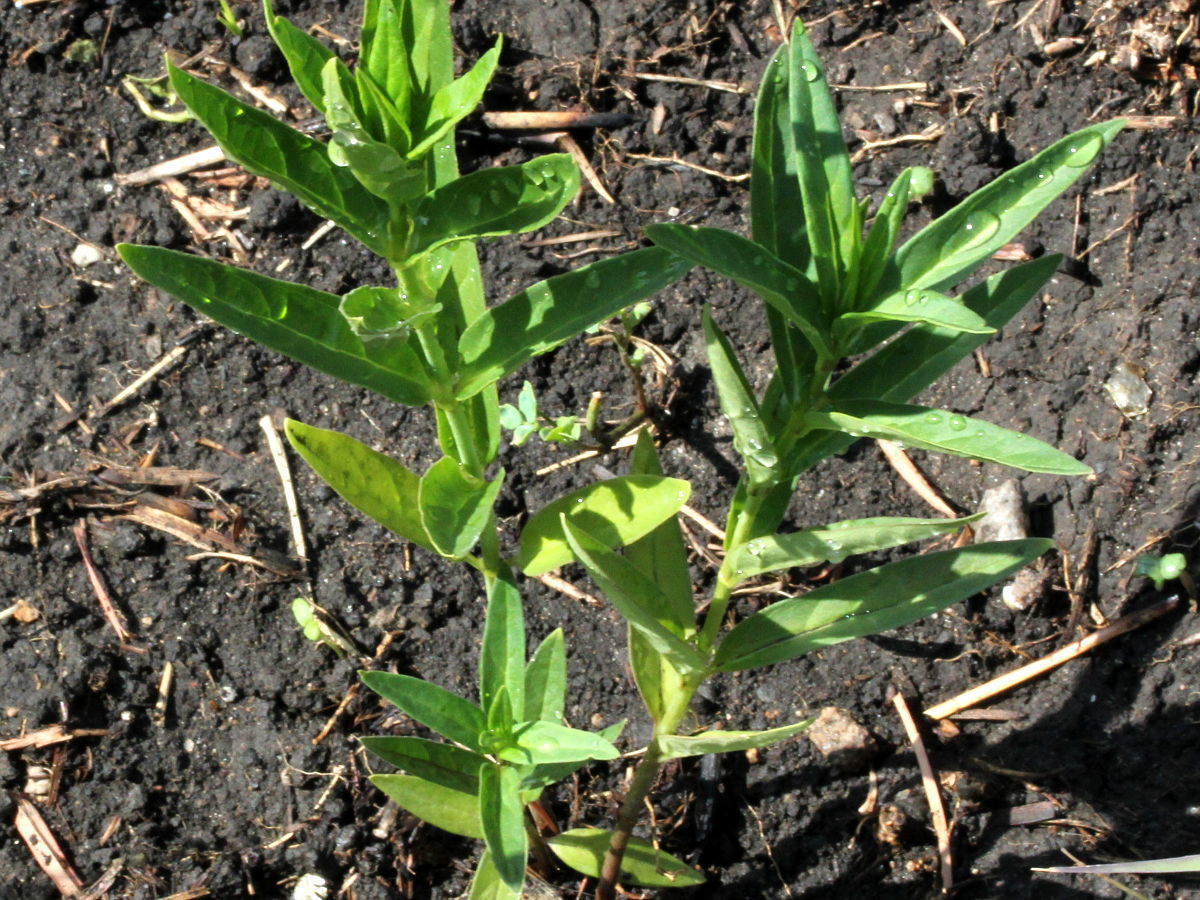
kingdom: Plantae
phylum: Tracheophyta
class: Magnoliopsida
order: Gentianales
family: Apocynaceae
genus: Asclepias
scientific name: Asclepias incarnata
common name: Swamp milkweed
